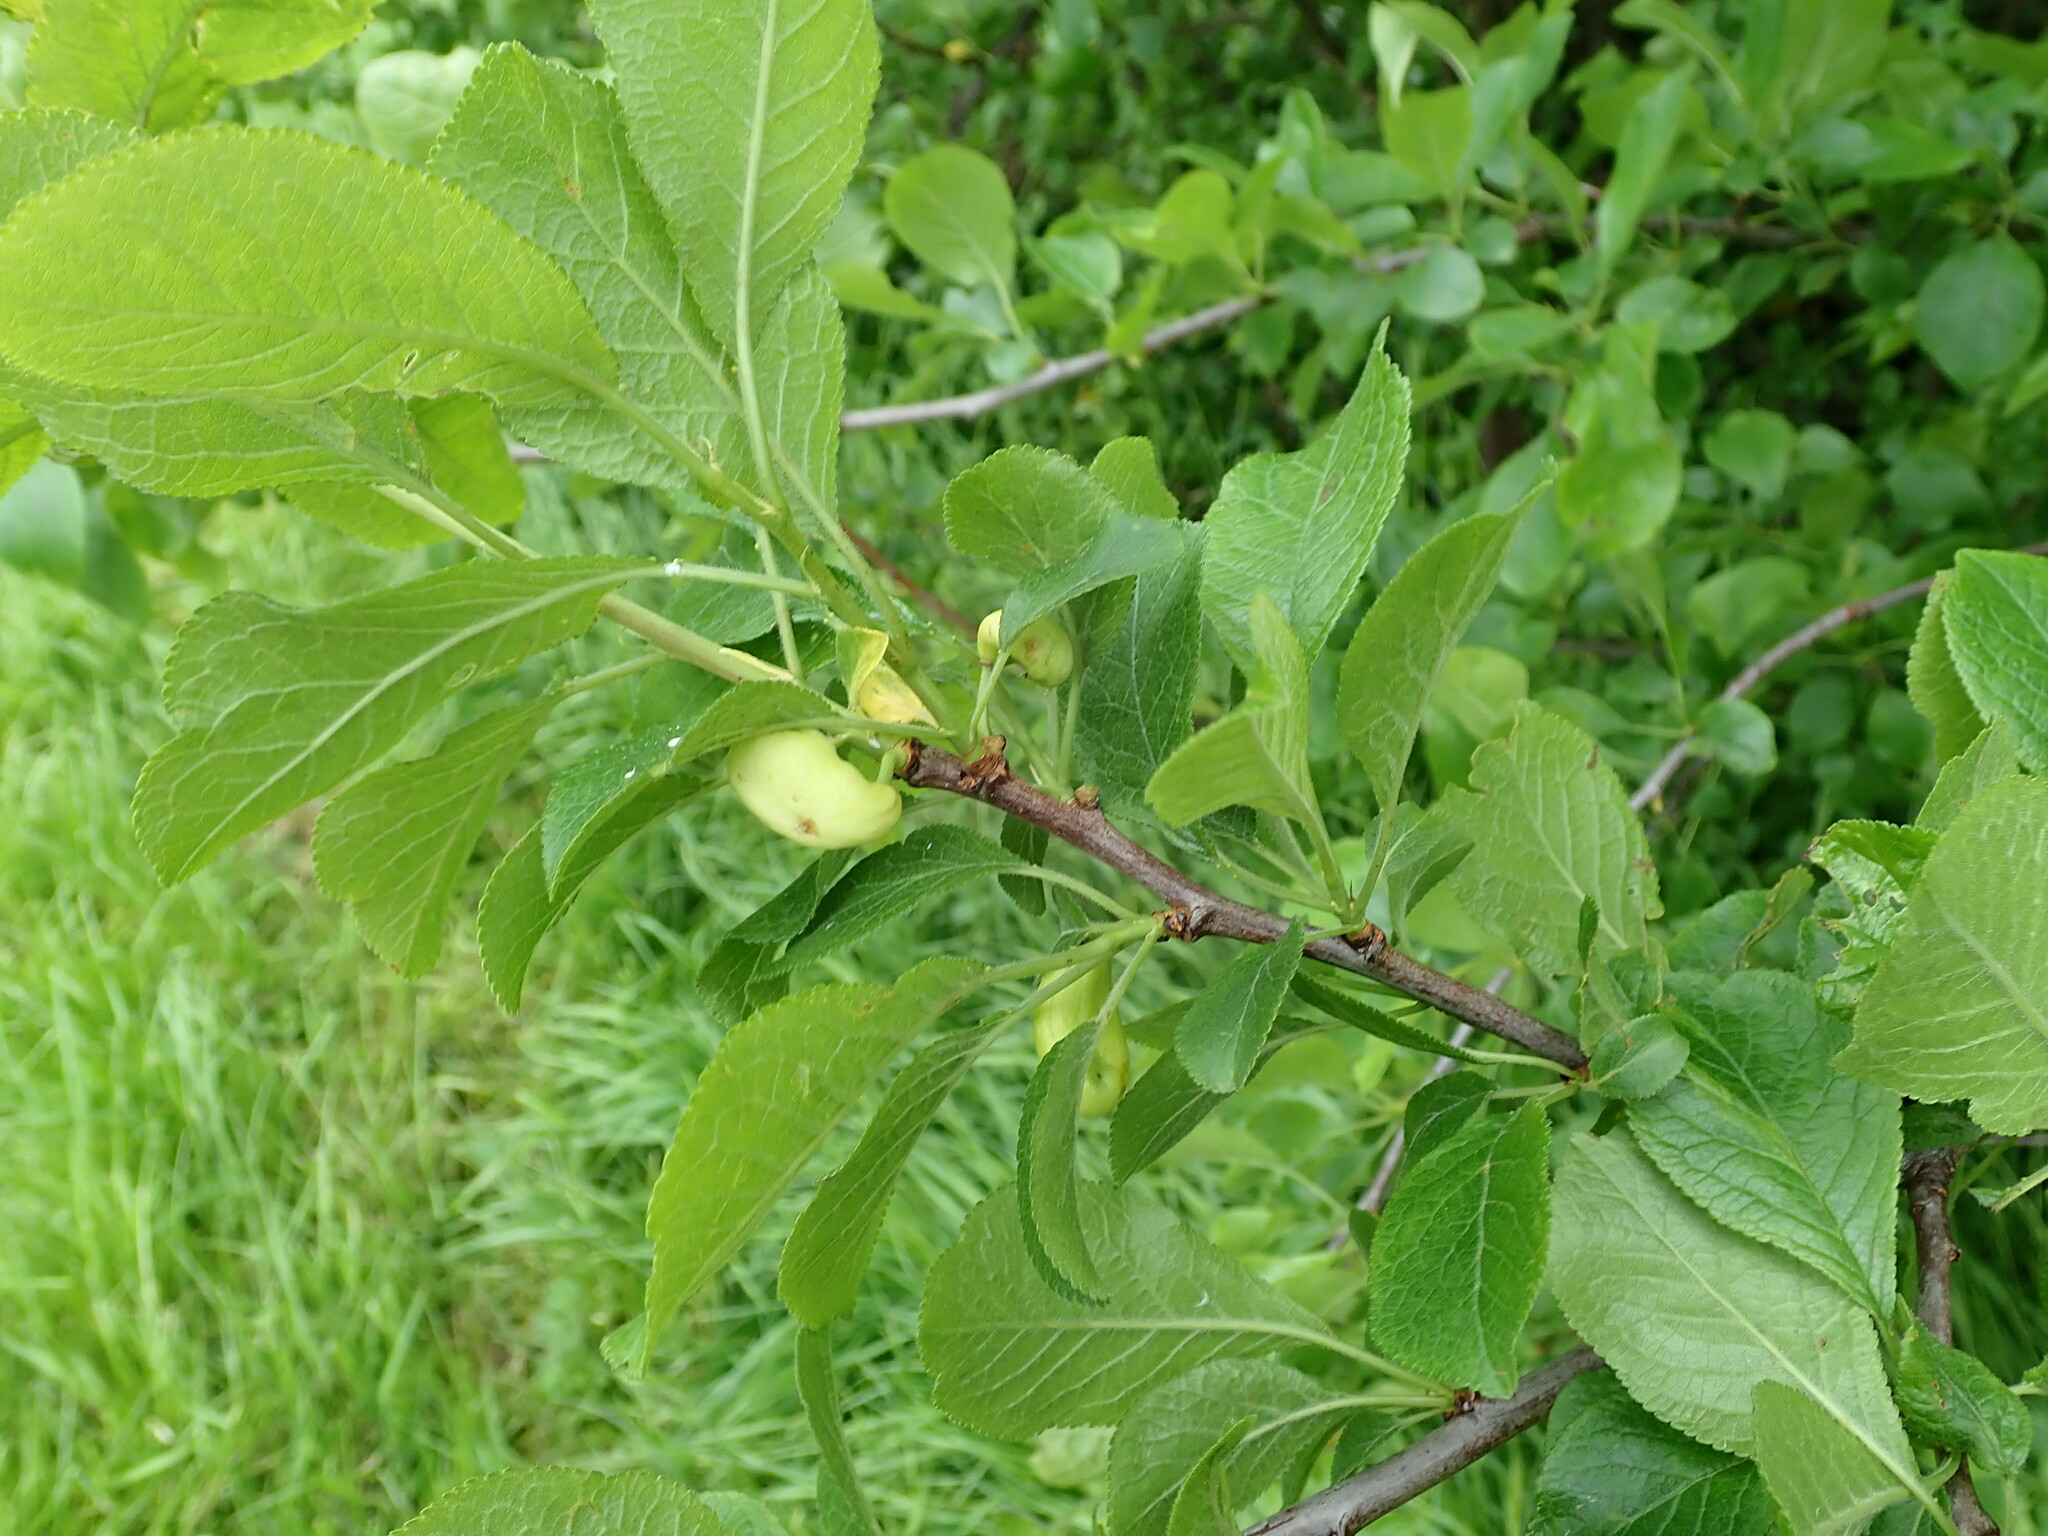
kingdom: Fungi
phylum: Ascomycota
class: Taphrinomycetes
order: Taphrinales
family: Taphrinaceae
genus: Taphrina
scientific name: Taphrina pruni
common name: Pocket plum
